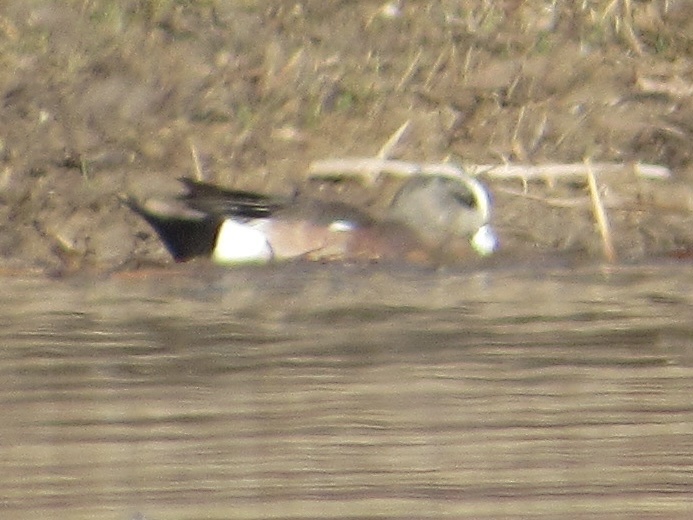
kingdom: Animalia
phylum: Chordata
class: Aves
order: Anseriformes
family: Anatidae
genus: Mareca
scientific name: Mareca americana
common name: American wigeon
